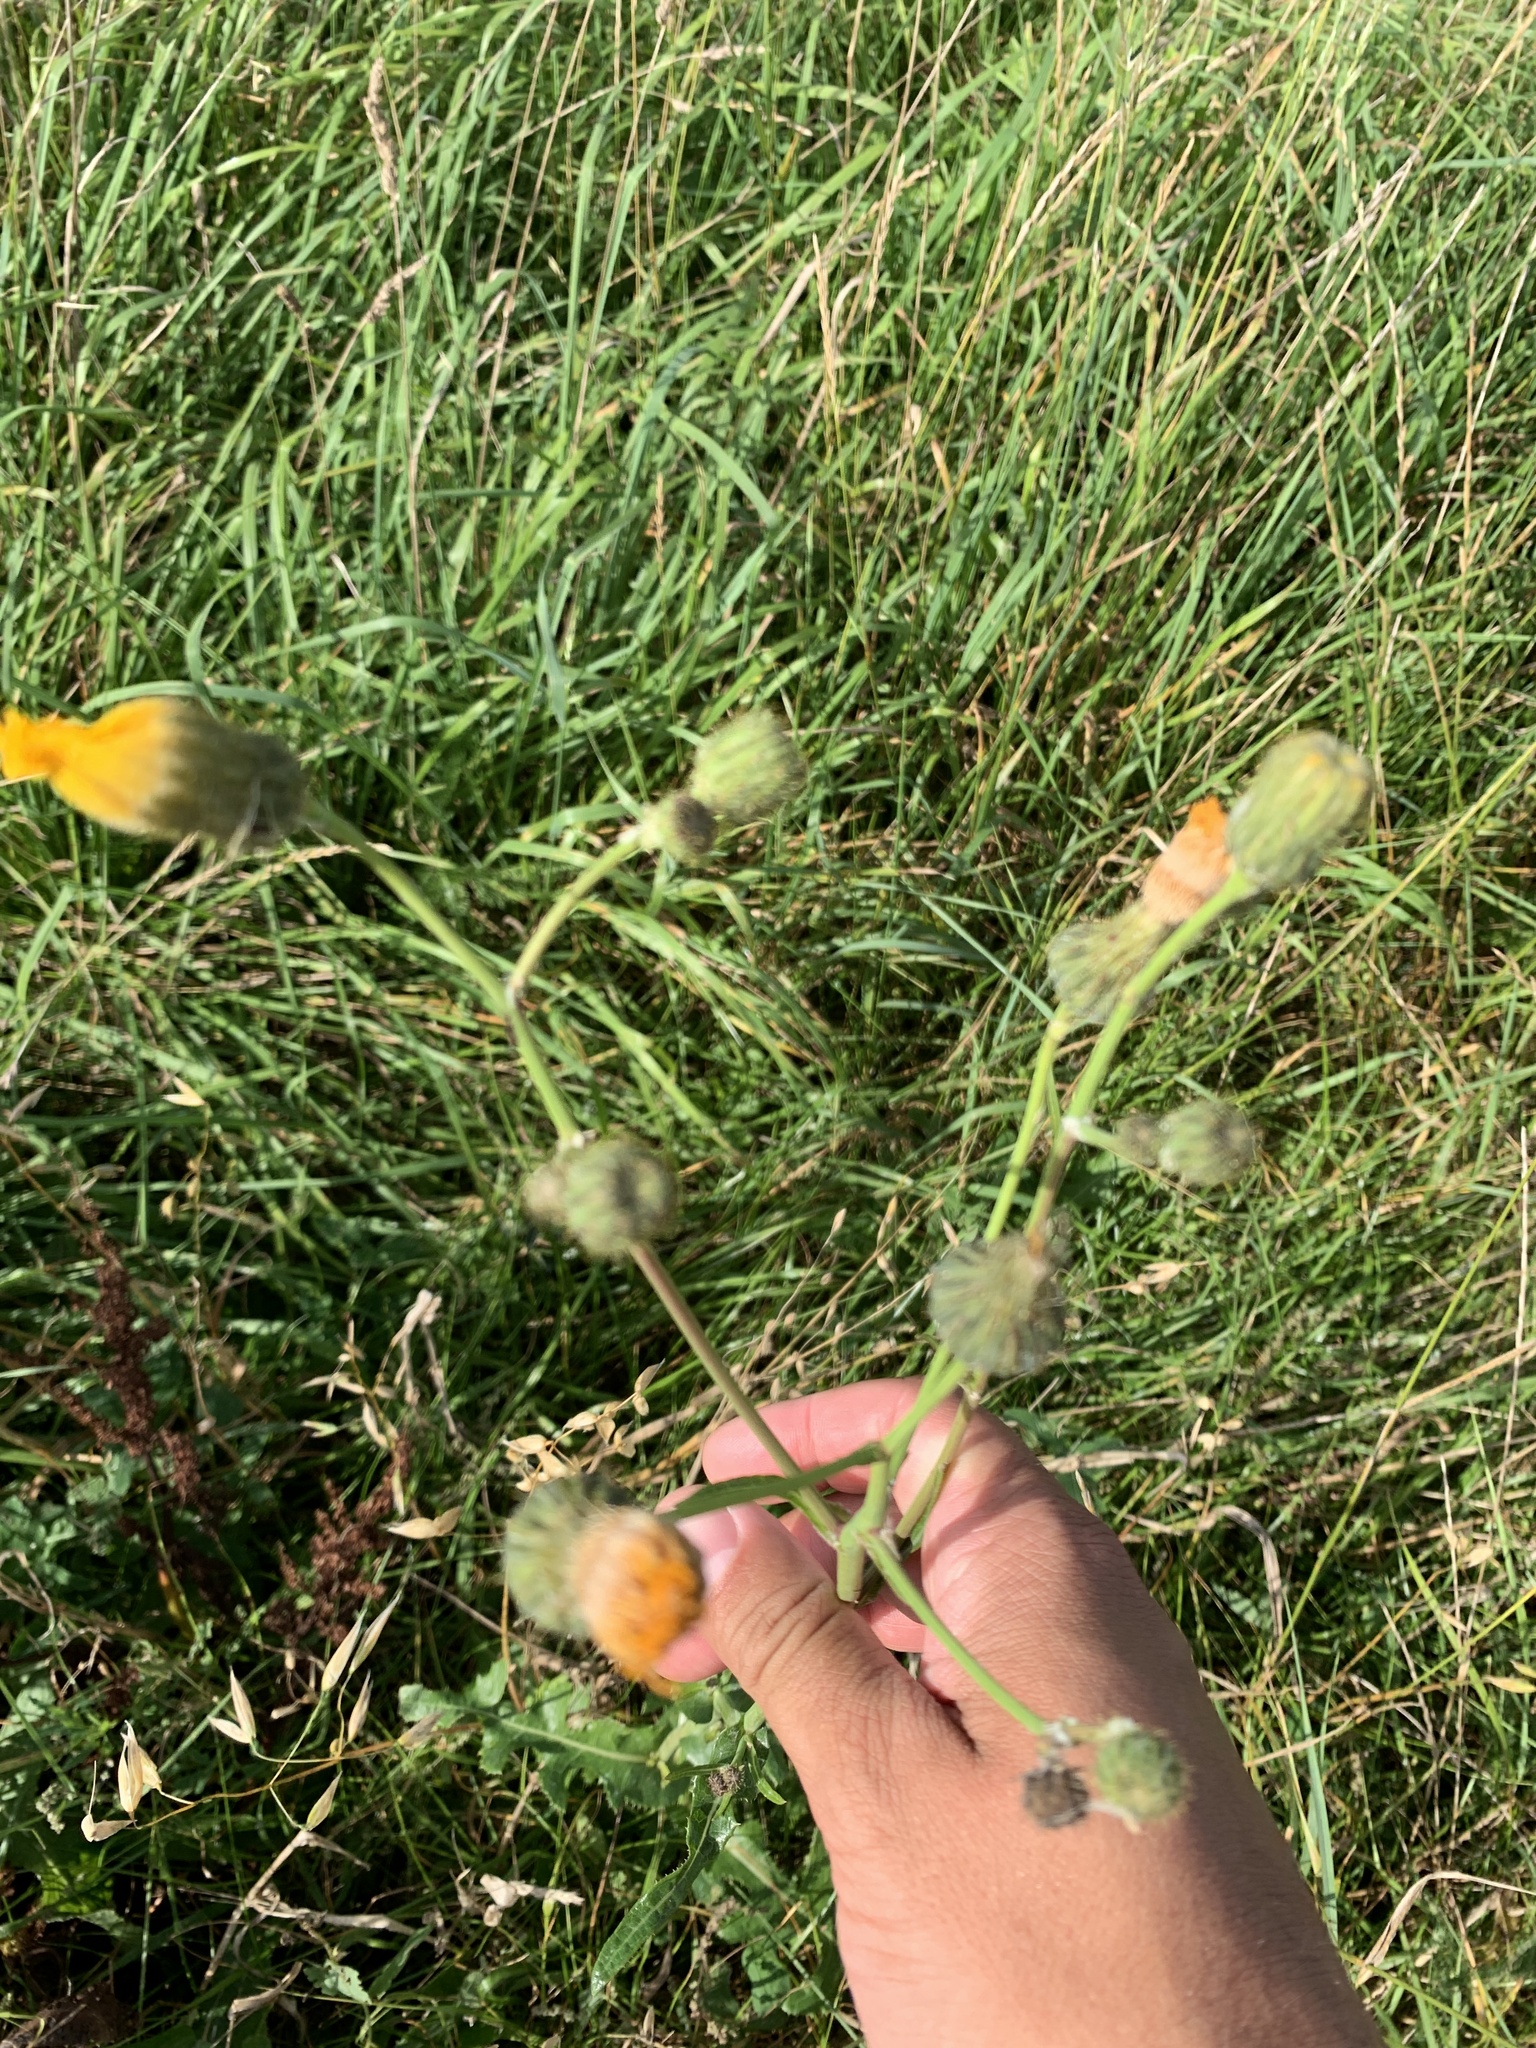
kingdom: Plantae
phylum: Tracheophyta
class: Magnoliopsida
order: Asterales
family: Asteraceae
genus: Sonchus
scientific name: Sonchus arvensis
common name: Perennial sow-thistle
